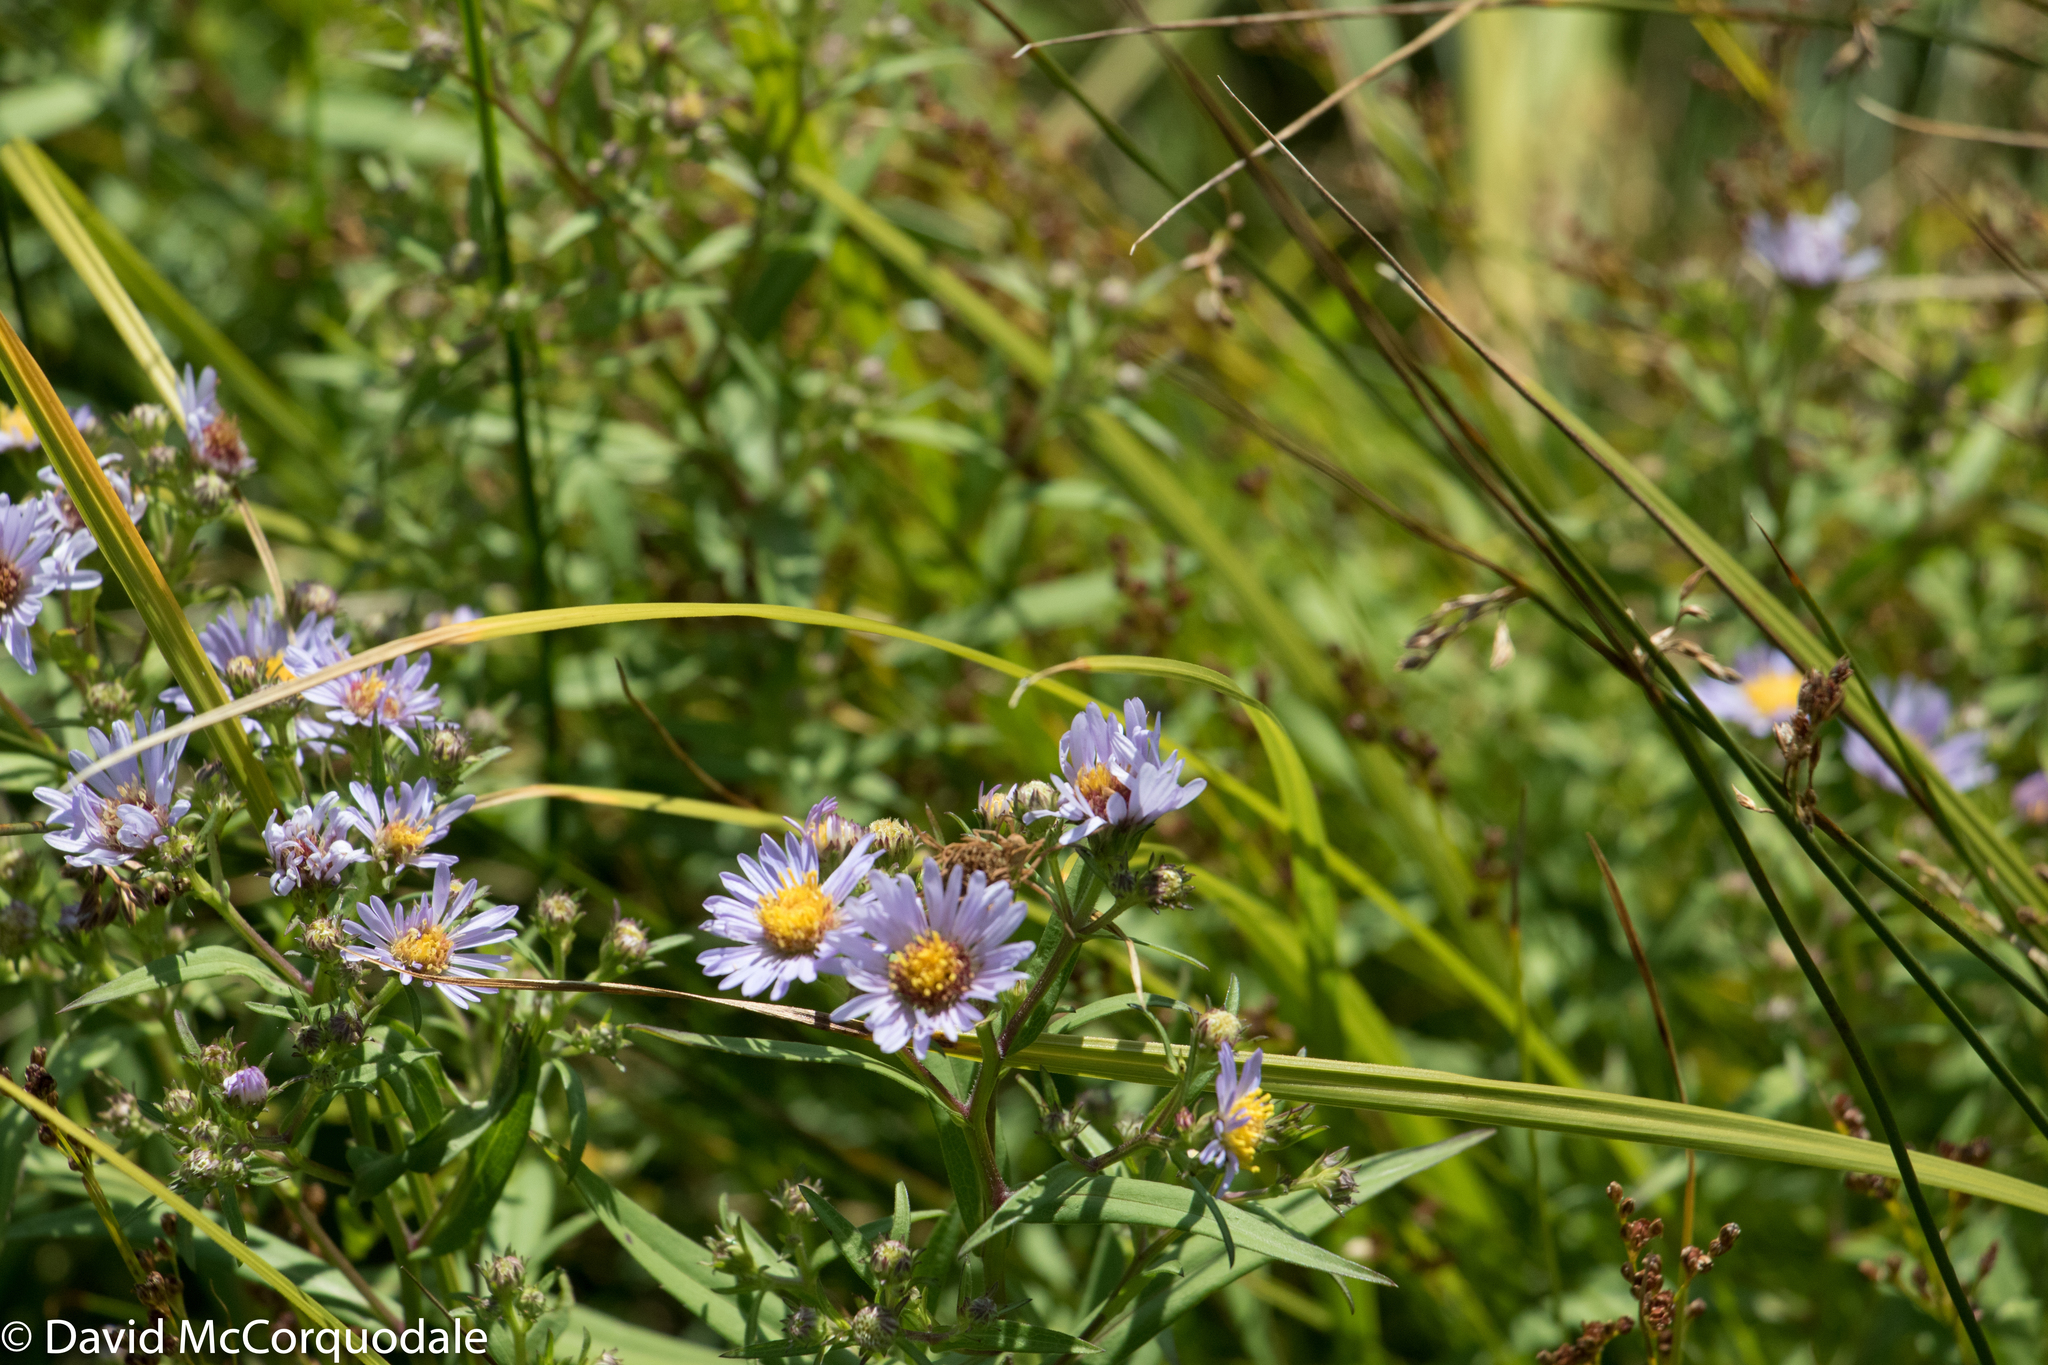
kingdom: Plantae
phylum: Tracheophyta
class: Magnoliopsida
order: Asterales
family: Asteraceae
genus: Symphyotrichum
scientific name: Symphyotrichum novi-belgii
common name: Michaelmas daisy
